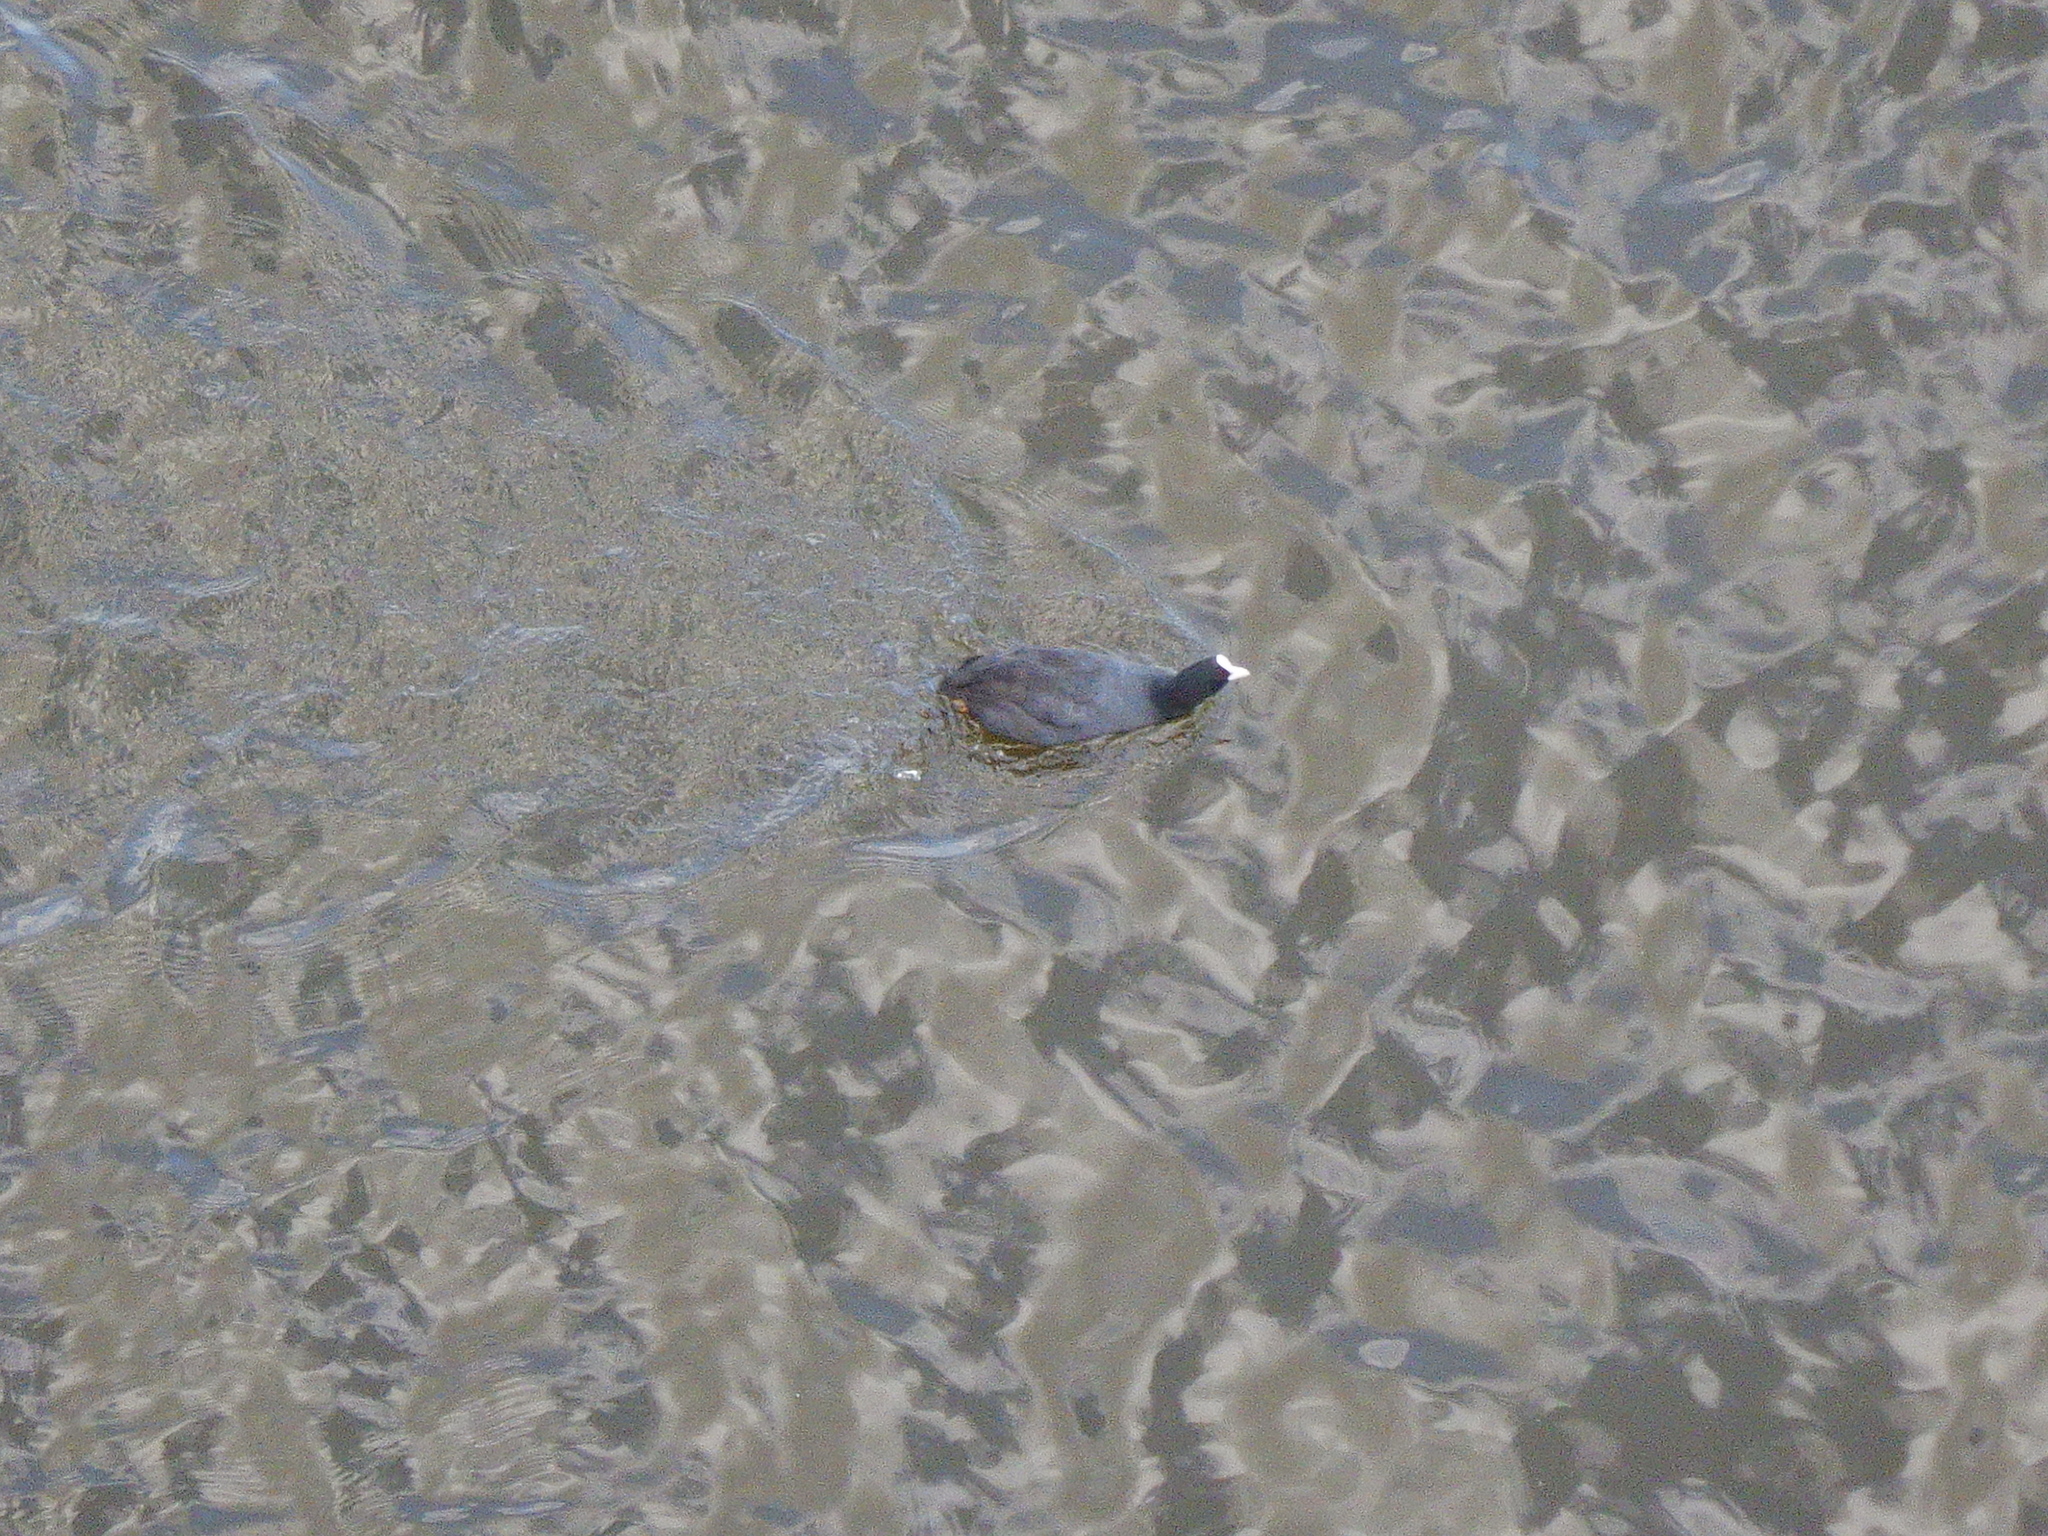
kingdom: Animalia
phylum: Chordata
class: Aves
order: Gruiformes
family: Rallidae
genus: Fulica
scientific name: Fulica atra
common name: Eurasian coot
